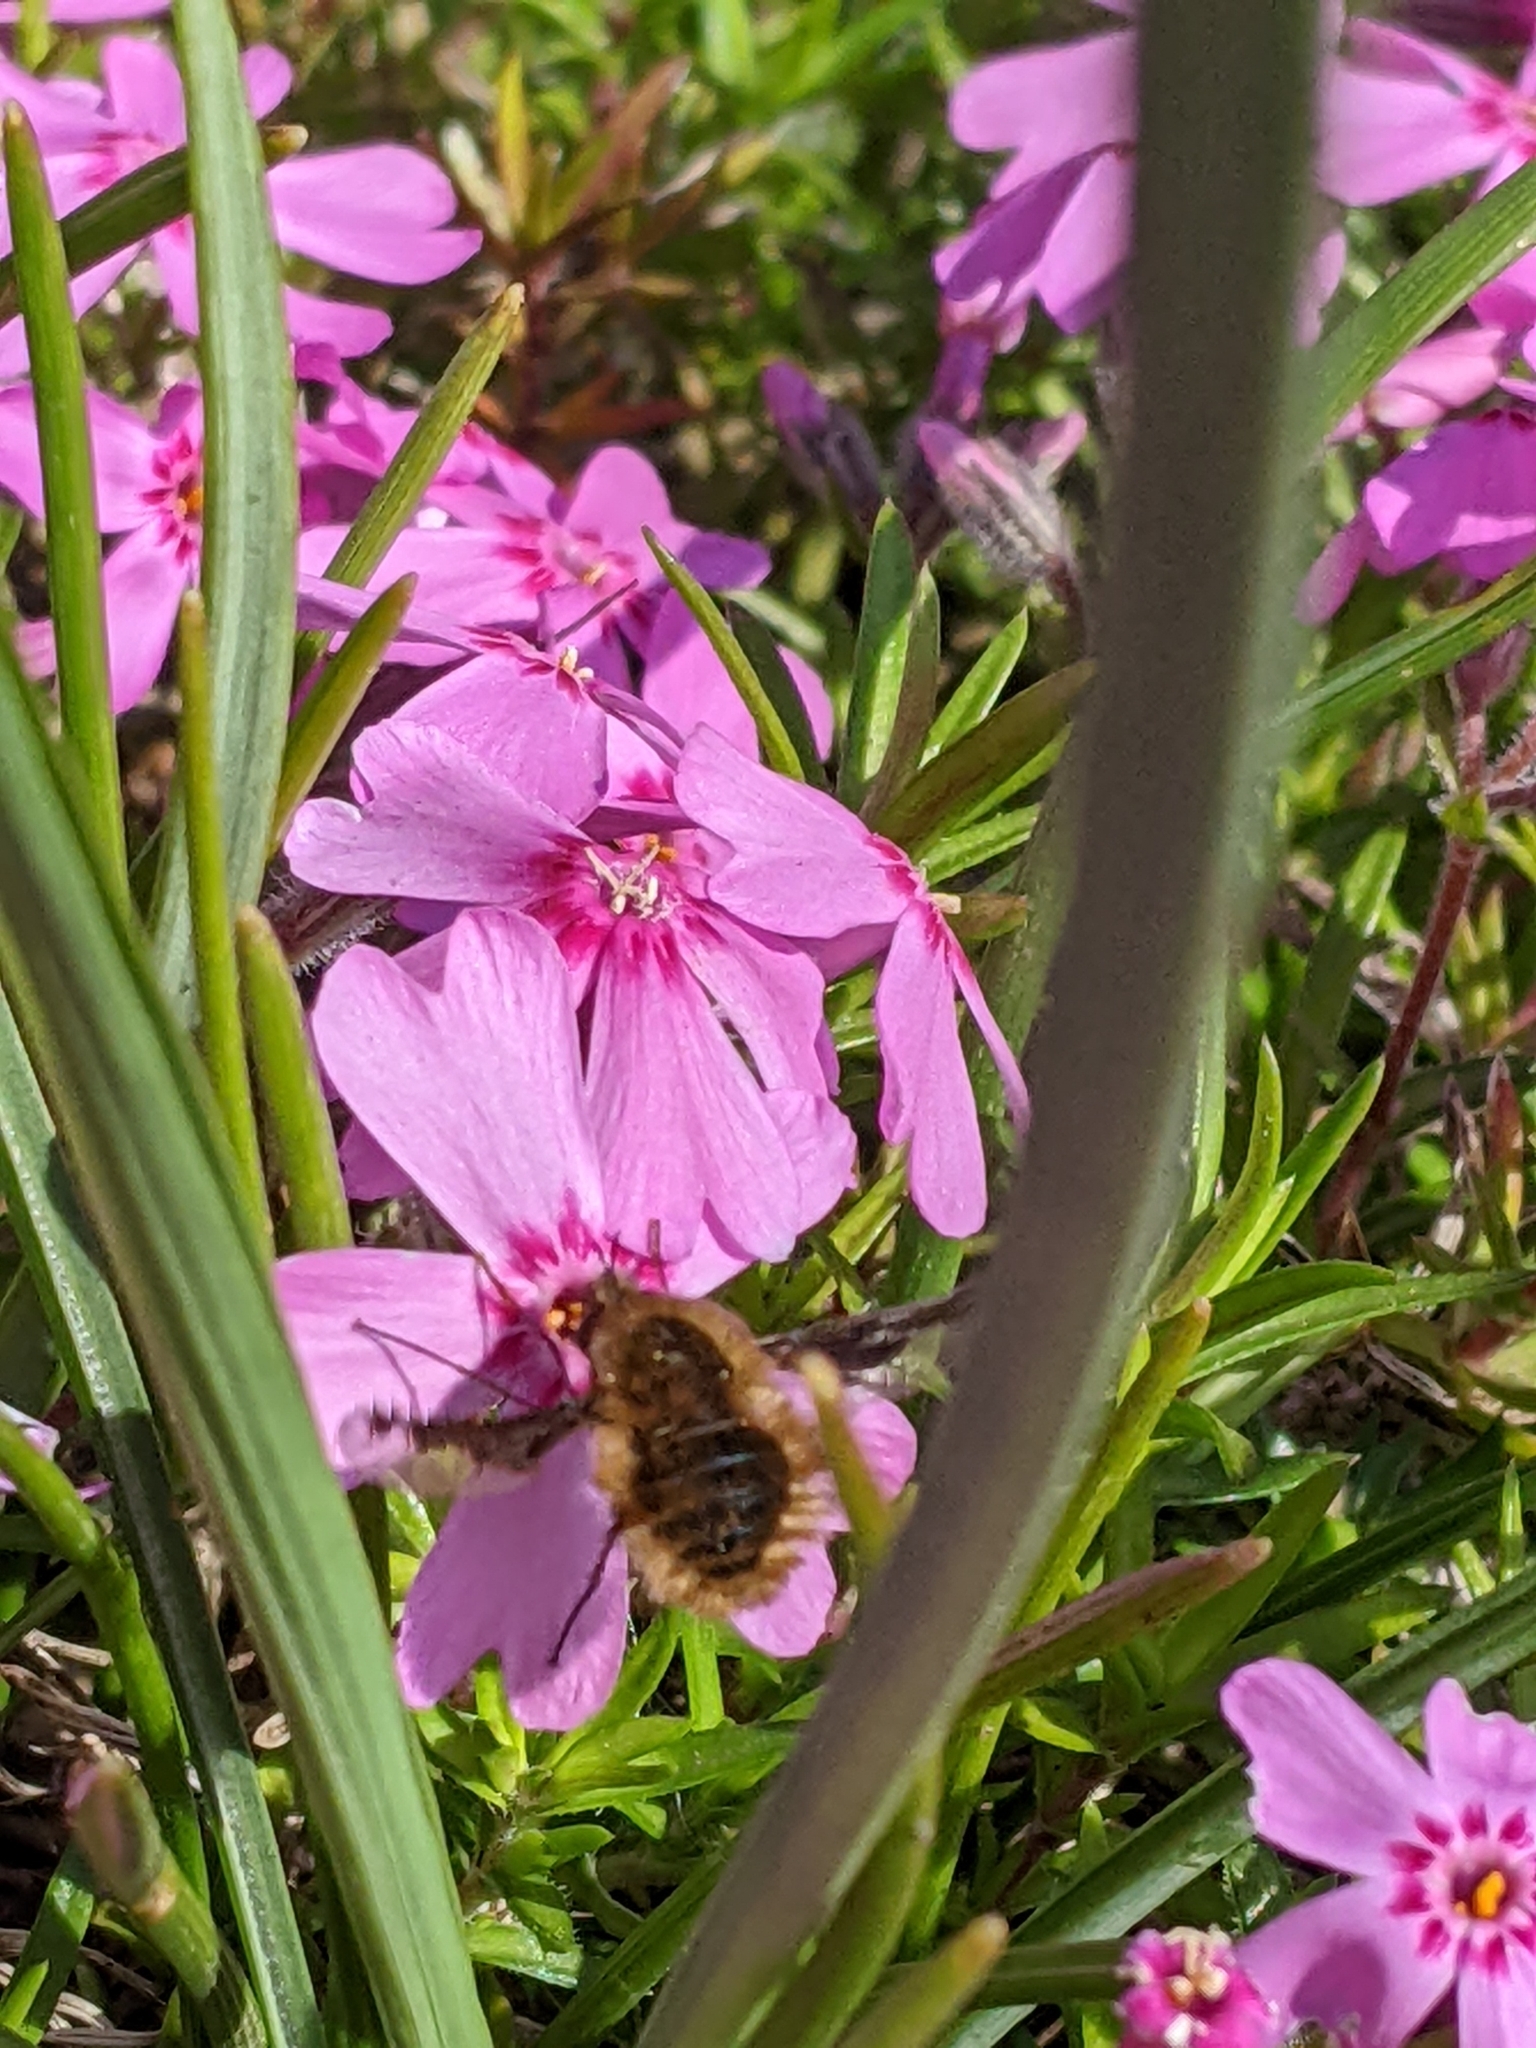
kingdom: Animalia
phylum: Arthropoda
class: Insecta
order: Diptera
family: Bombyliidae
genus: Bombylius
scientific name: Bombylius major
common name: Bee fly
